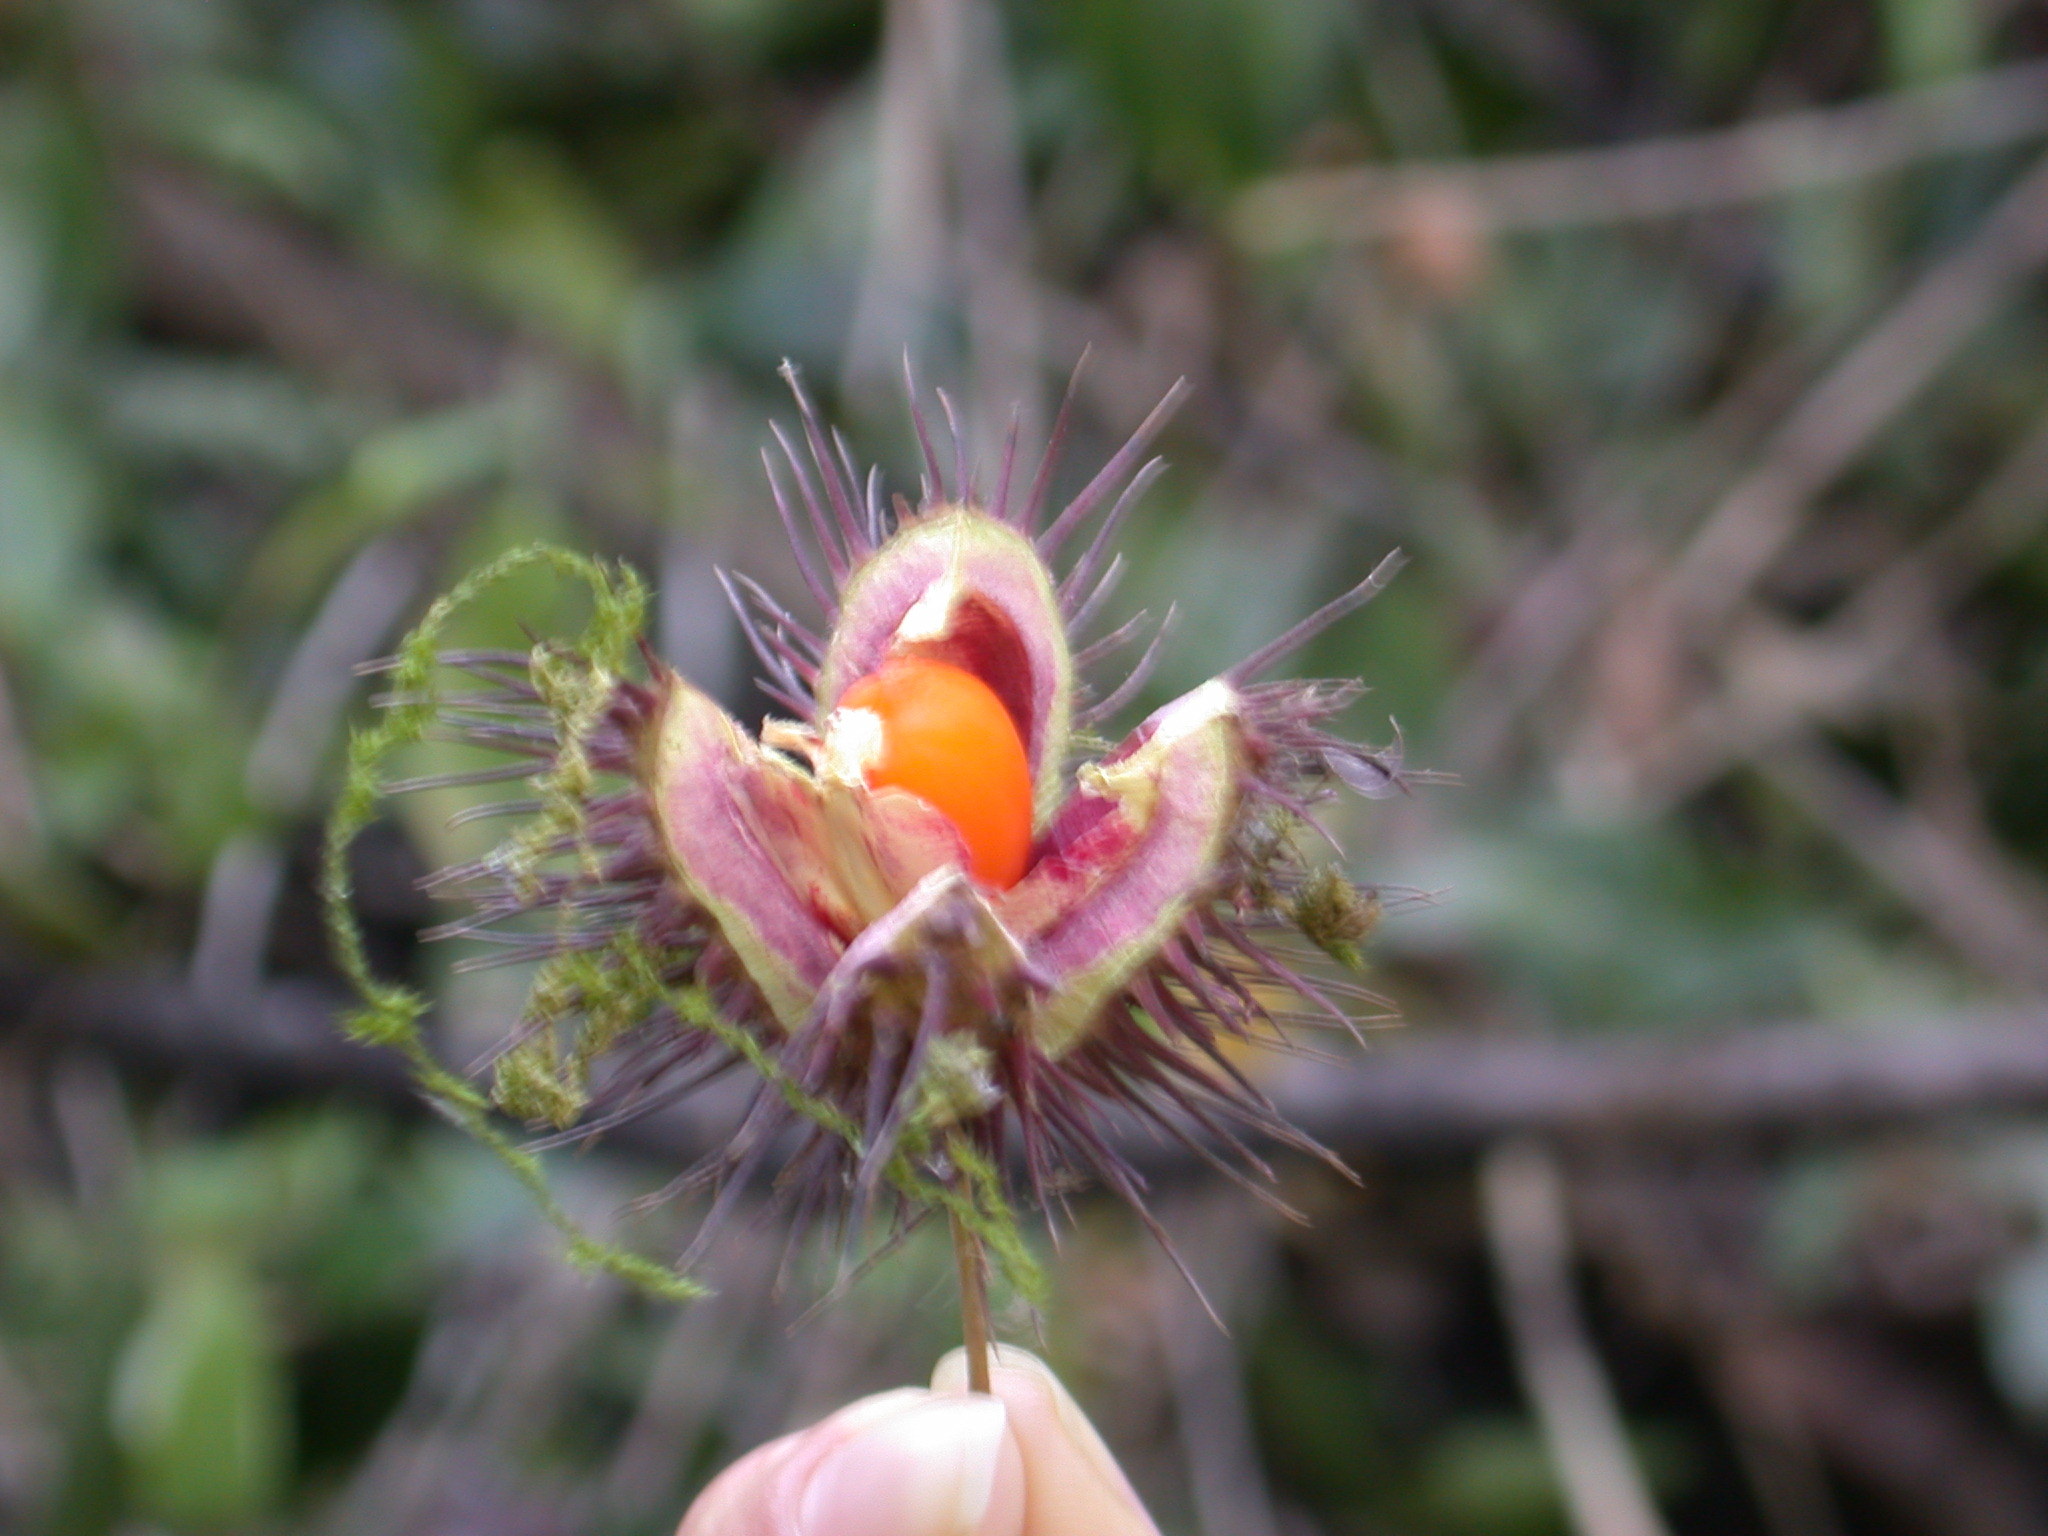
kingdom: Plantae
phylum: Tracheophyta
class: Magnoliopsida
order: Oxalidales
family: Elaeocarpaceae
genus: Sloanea
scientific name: Sloanea medusula
